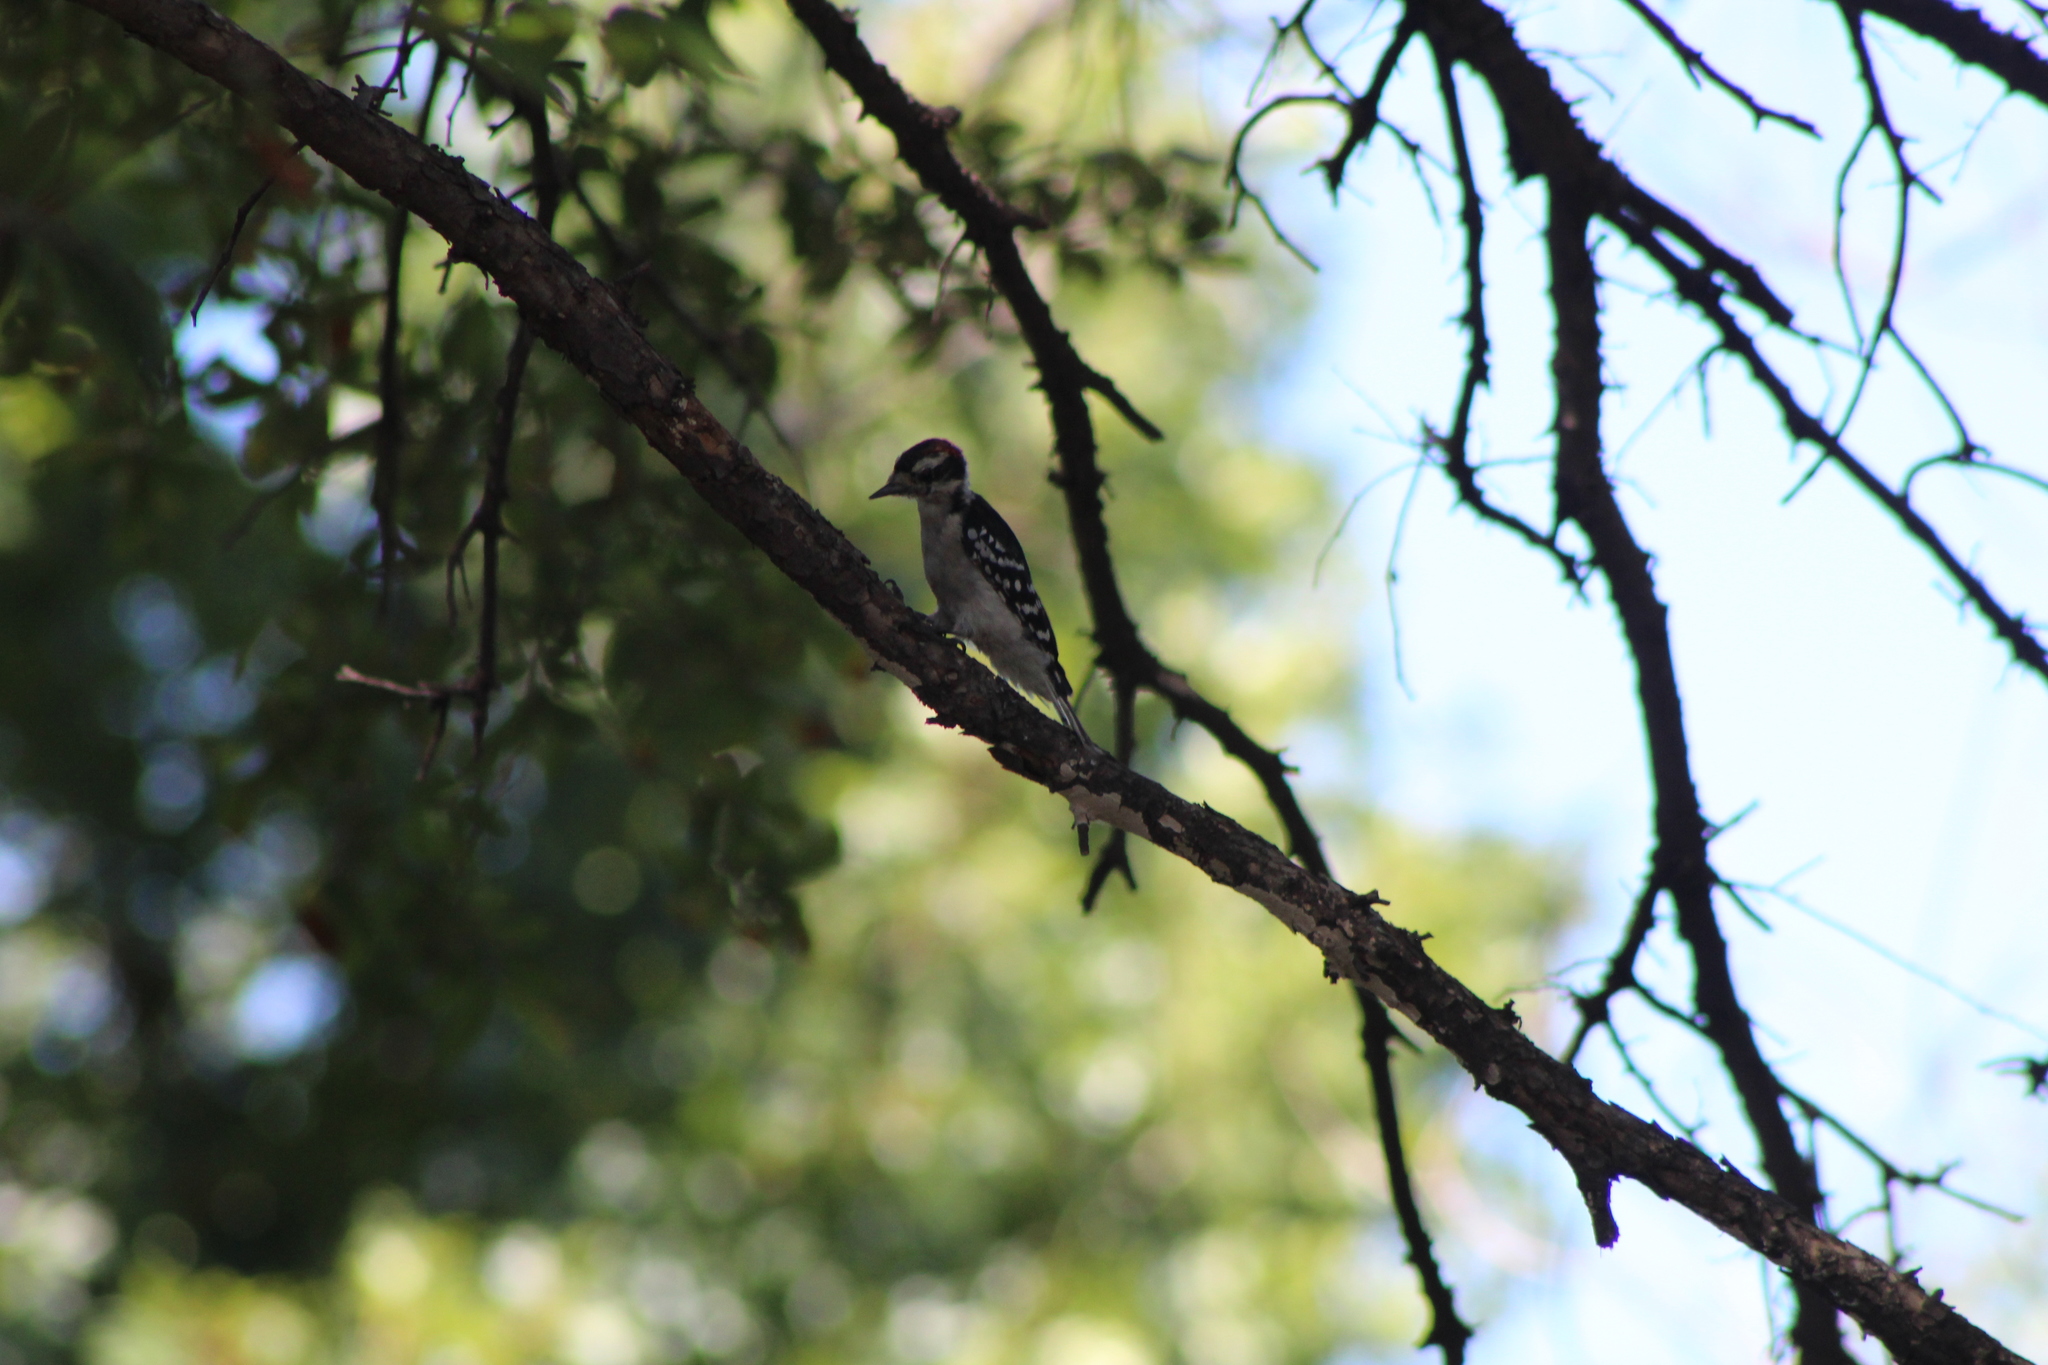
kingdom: Animalia
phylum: Chordata
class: Aves
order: Piciformes
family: Picidae
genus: Dryobates
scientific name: Dryobates pubescens
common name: Downy woodpecker
